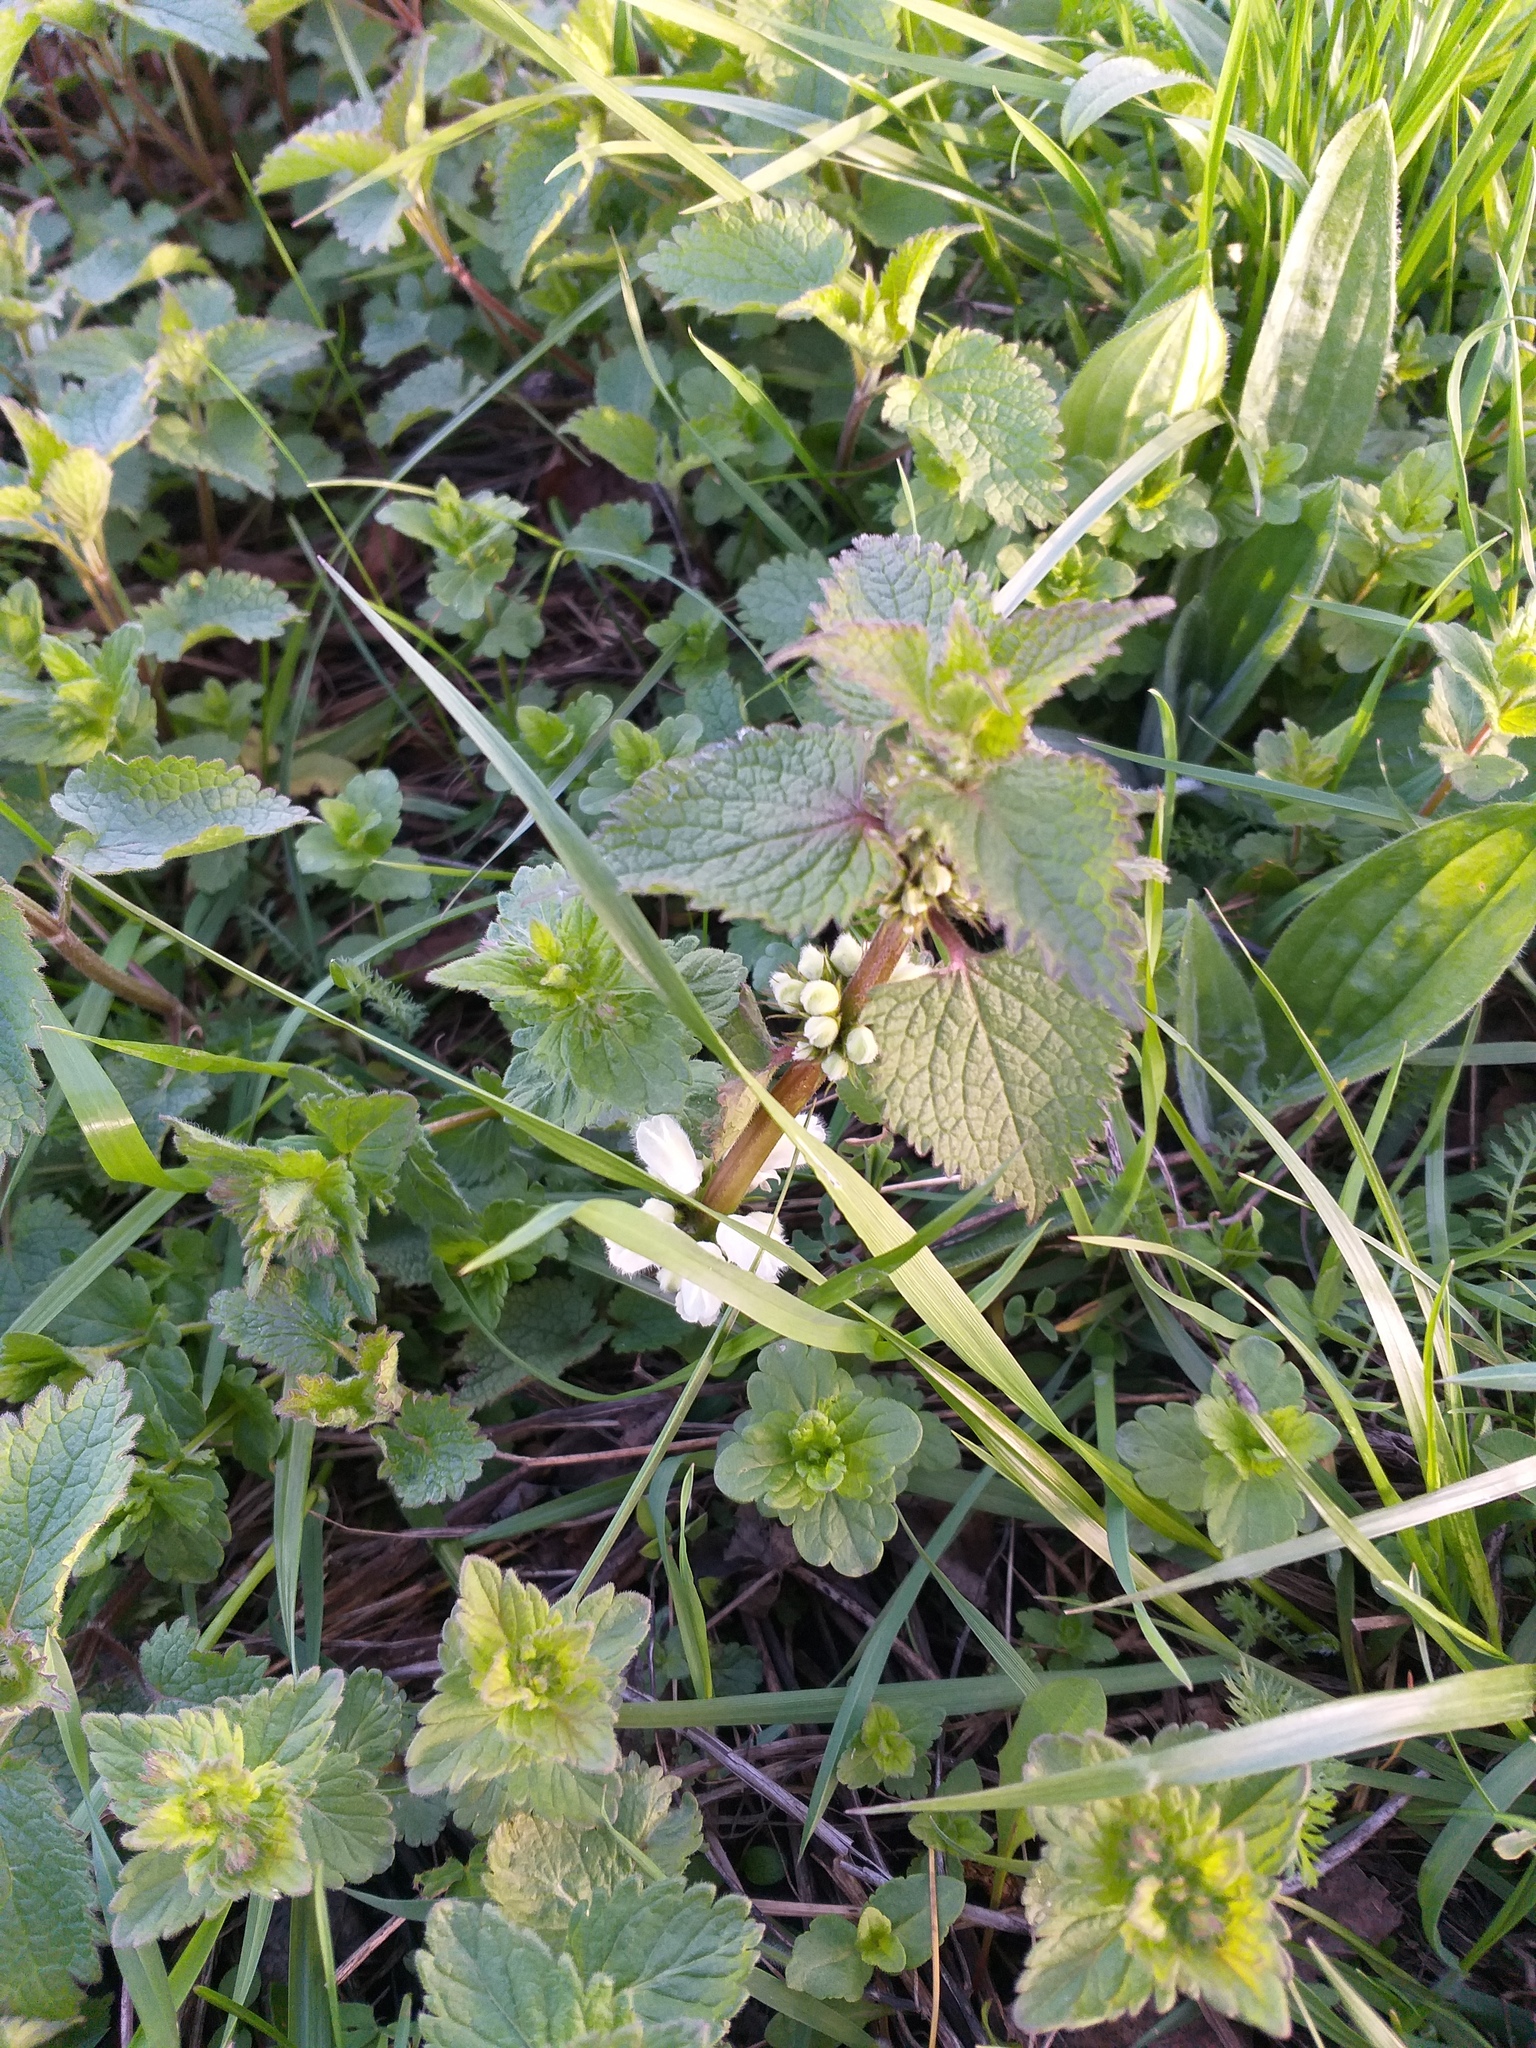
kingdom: Plantae
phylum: Tracheophyta
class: Magnoliopsida
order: Lamiales
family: Lamiaceae
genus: Lamium
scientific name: Lamium album
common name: White dead-nettle
